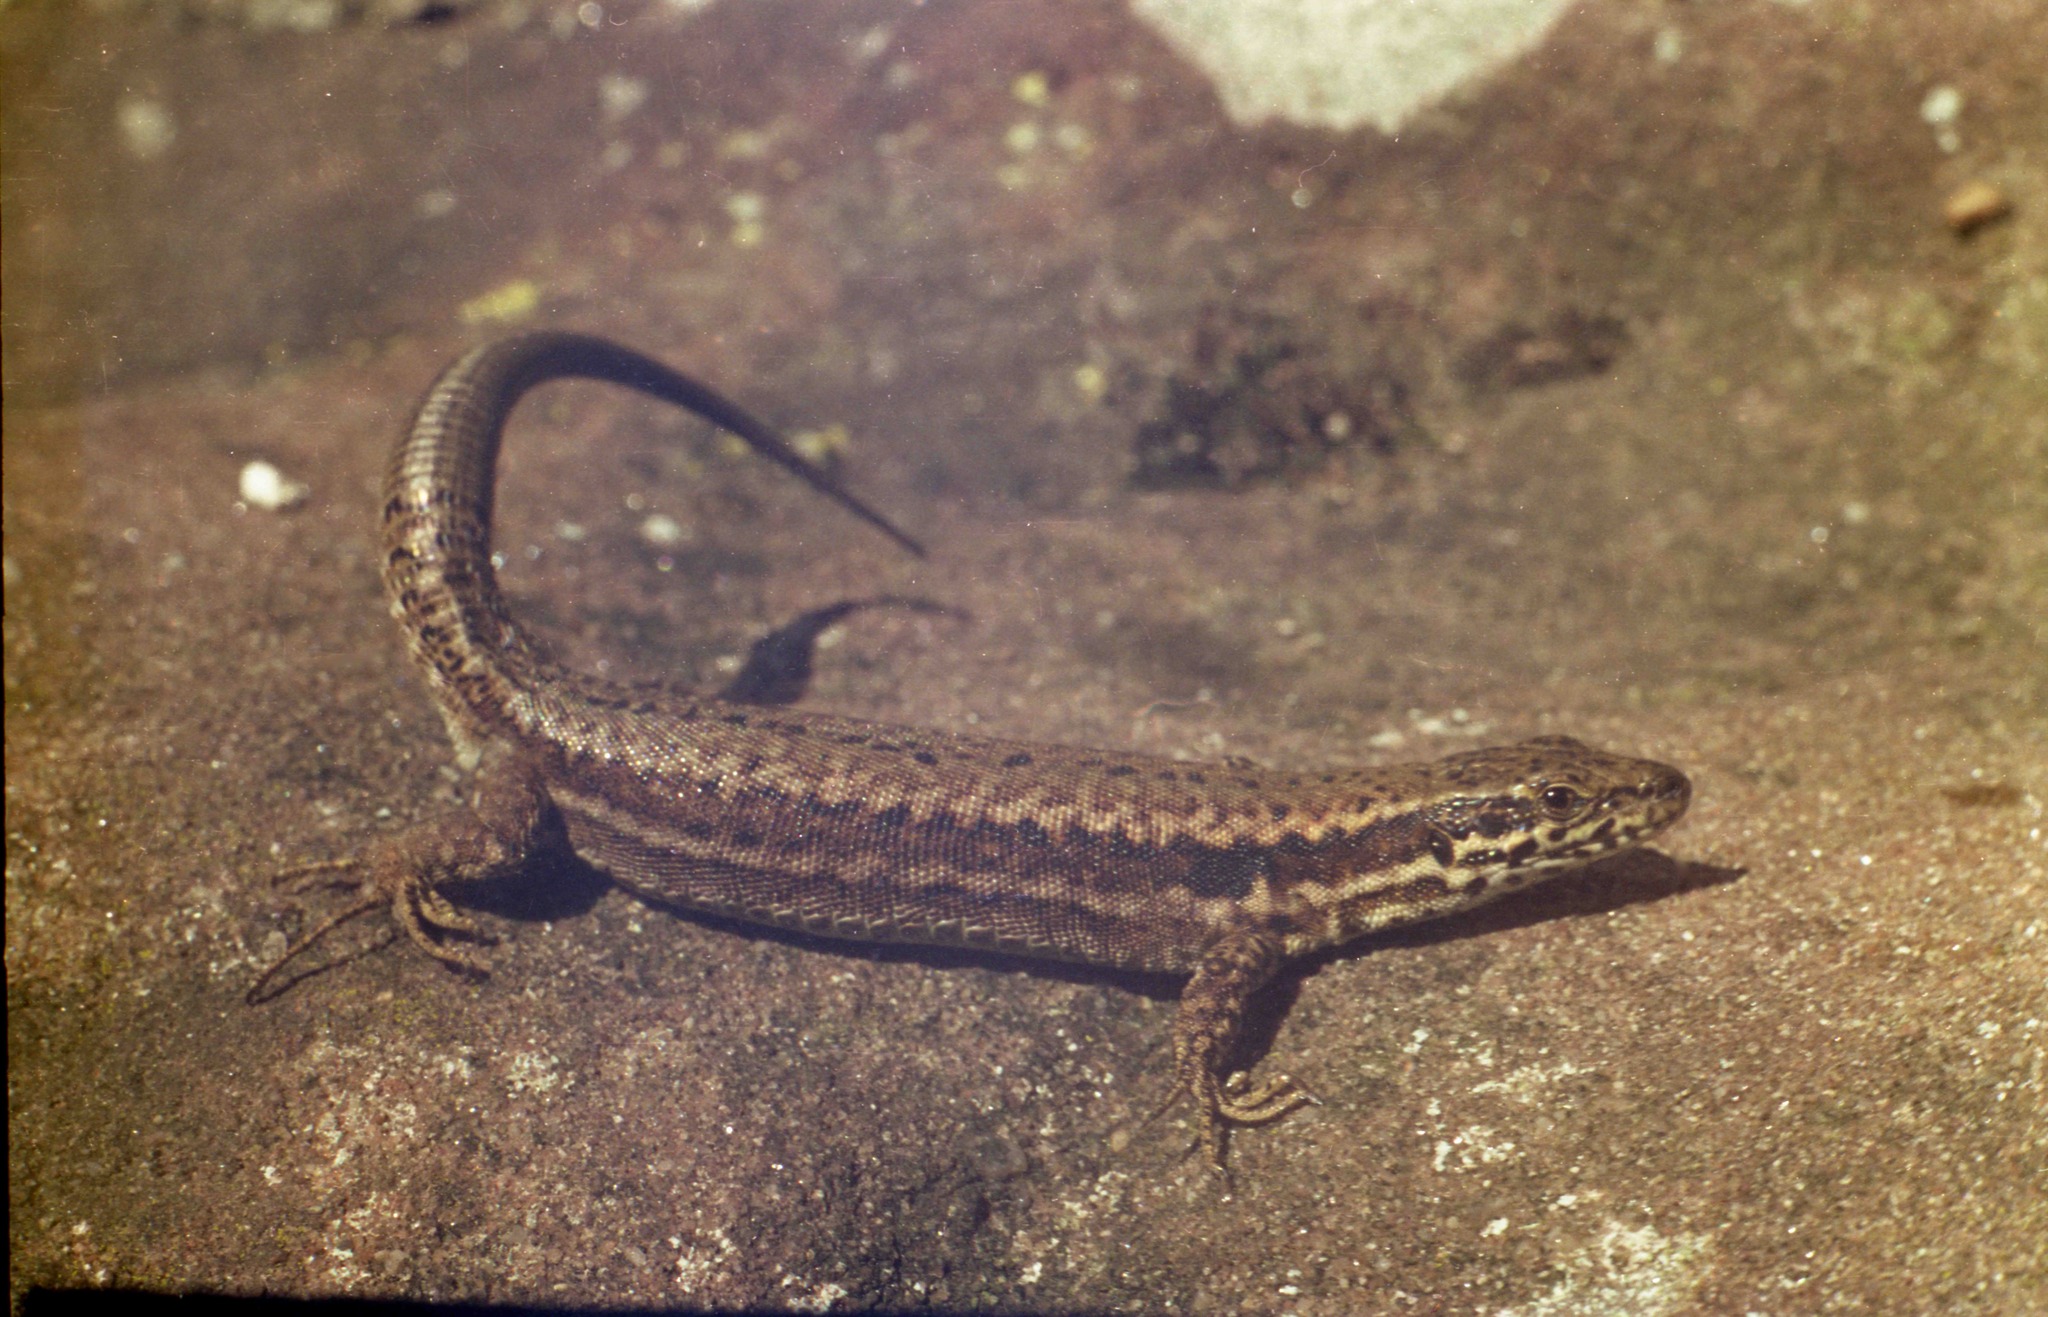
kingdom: Animalia
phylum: Chordata
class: Squamata
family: Lacertidae
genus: Podarcis
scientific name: Podarcis muralis
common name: Common wall lizard
